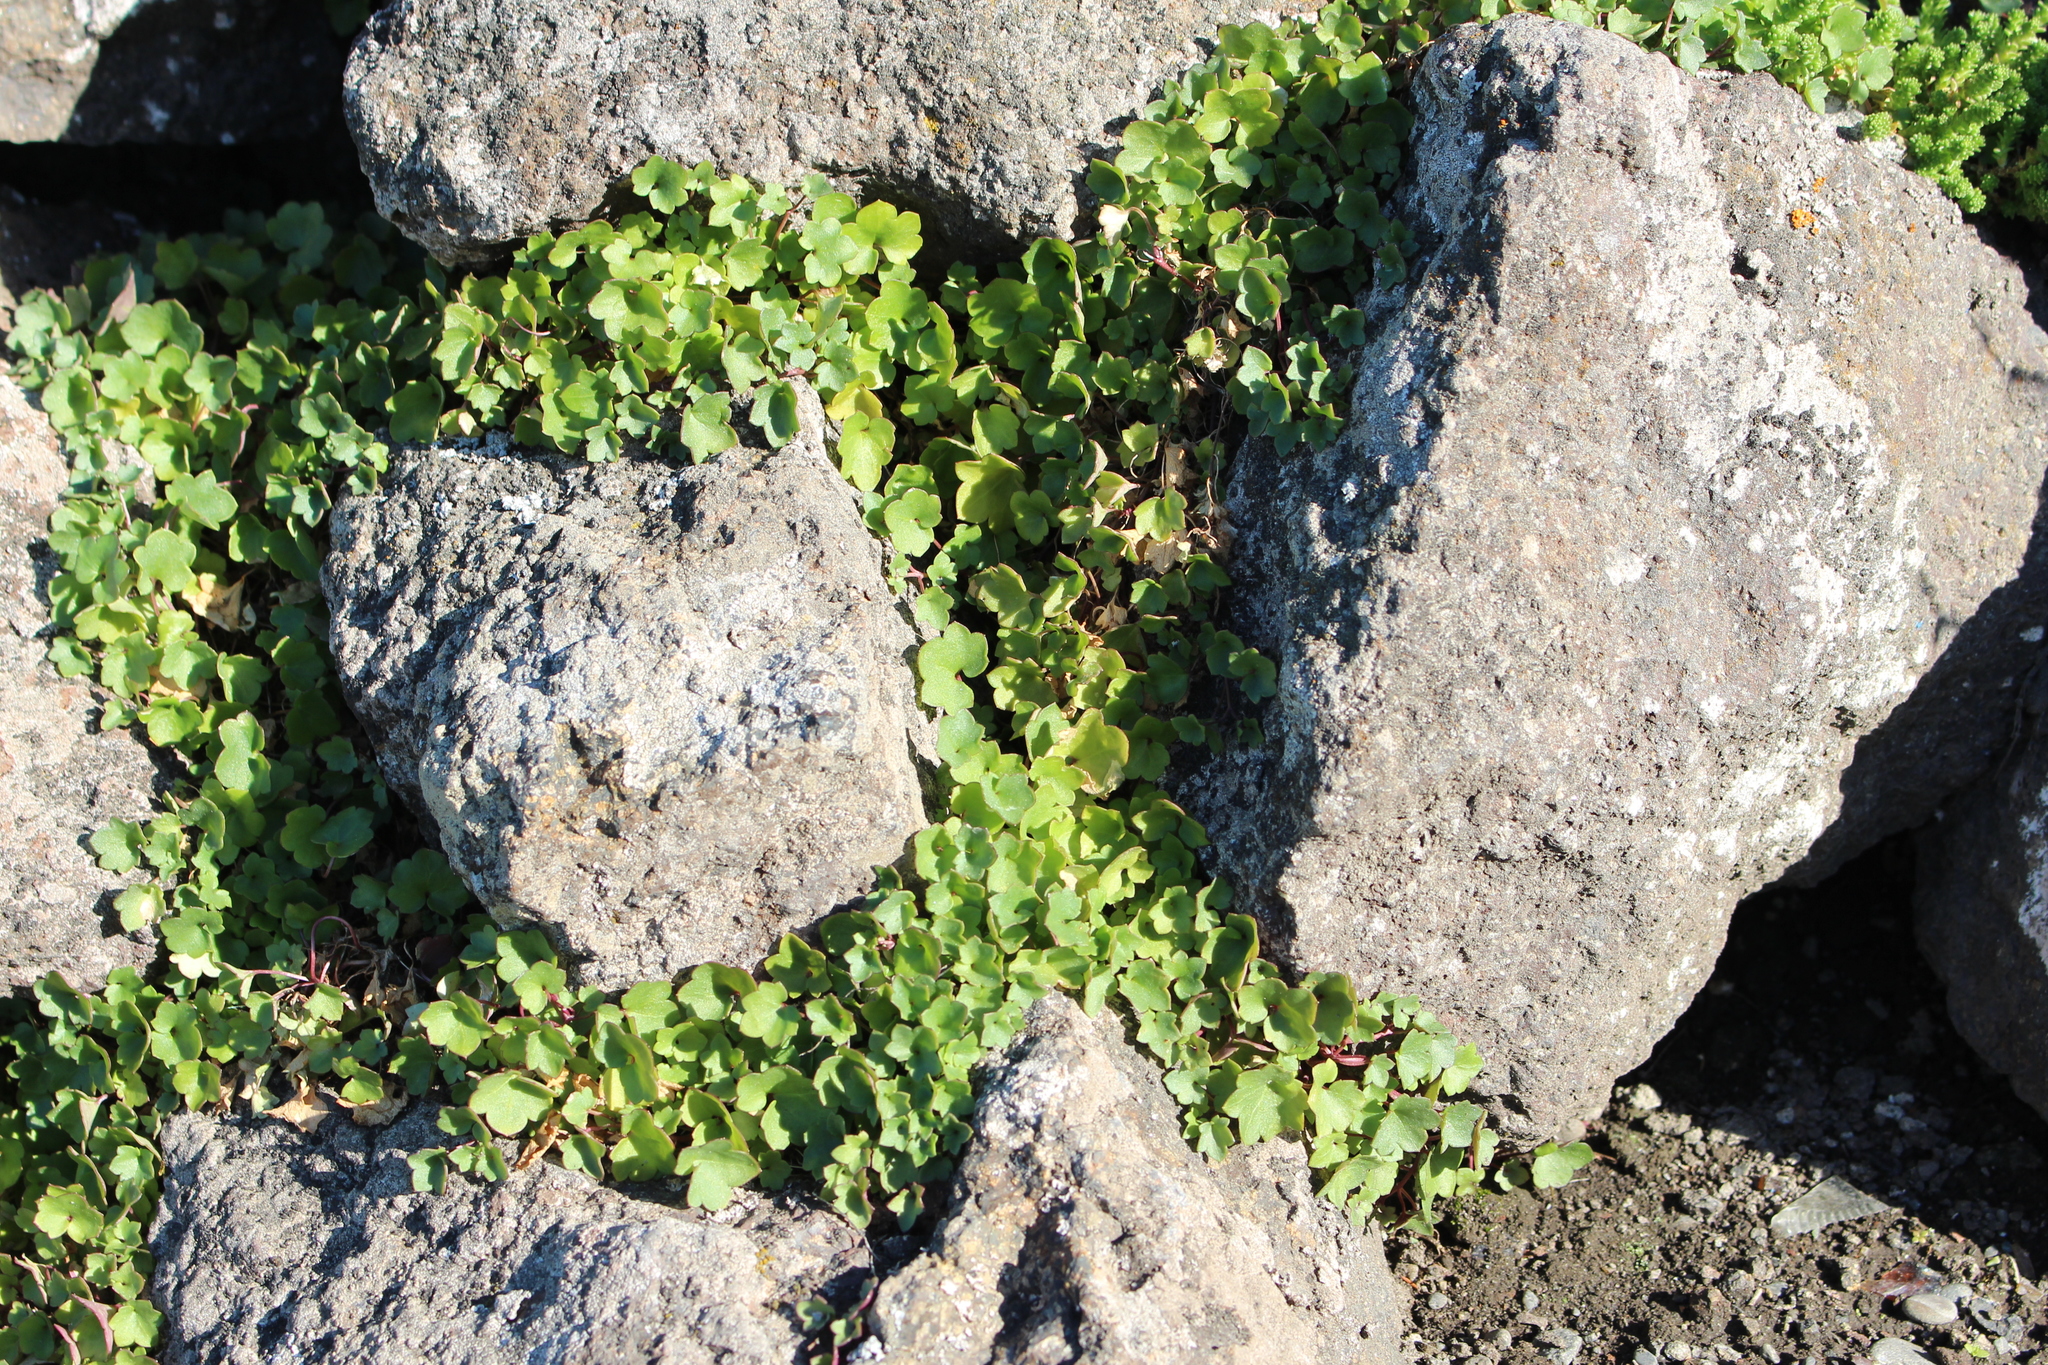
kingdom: Plantae
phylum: Tracheophyta
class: Magnoliopsida
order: Lamiales
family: Plantaginaceae
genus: Cymbalaria
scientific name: Cymbalaria muralis
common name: Ivy-leaved toadflax
